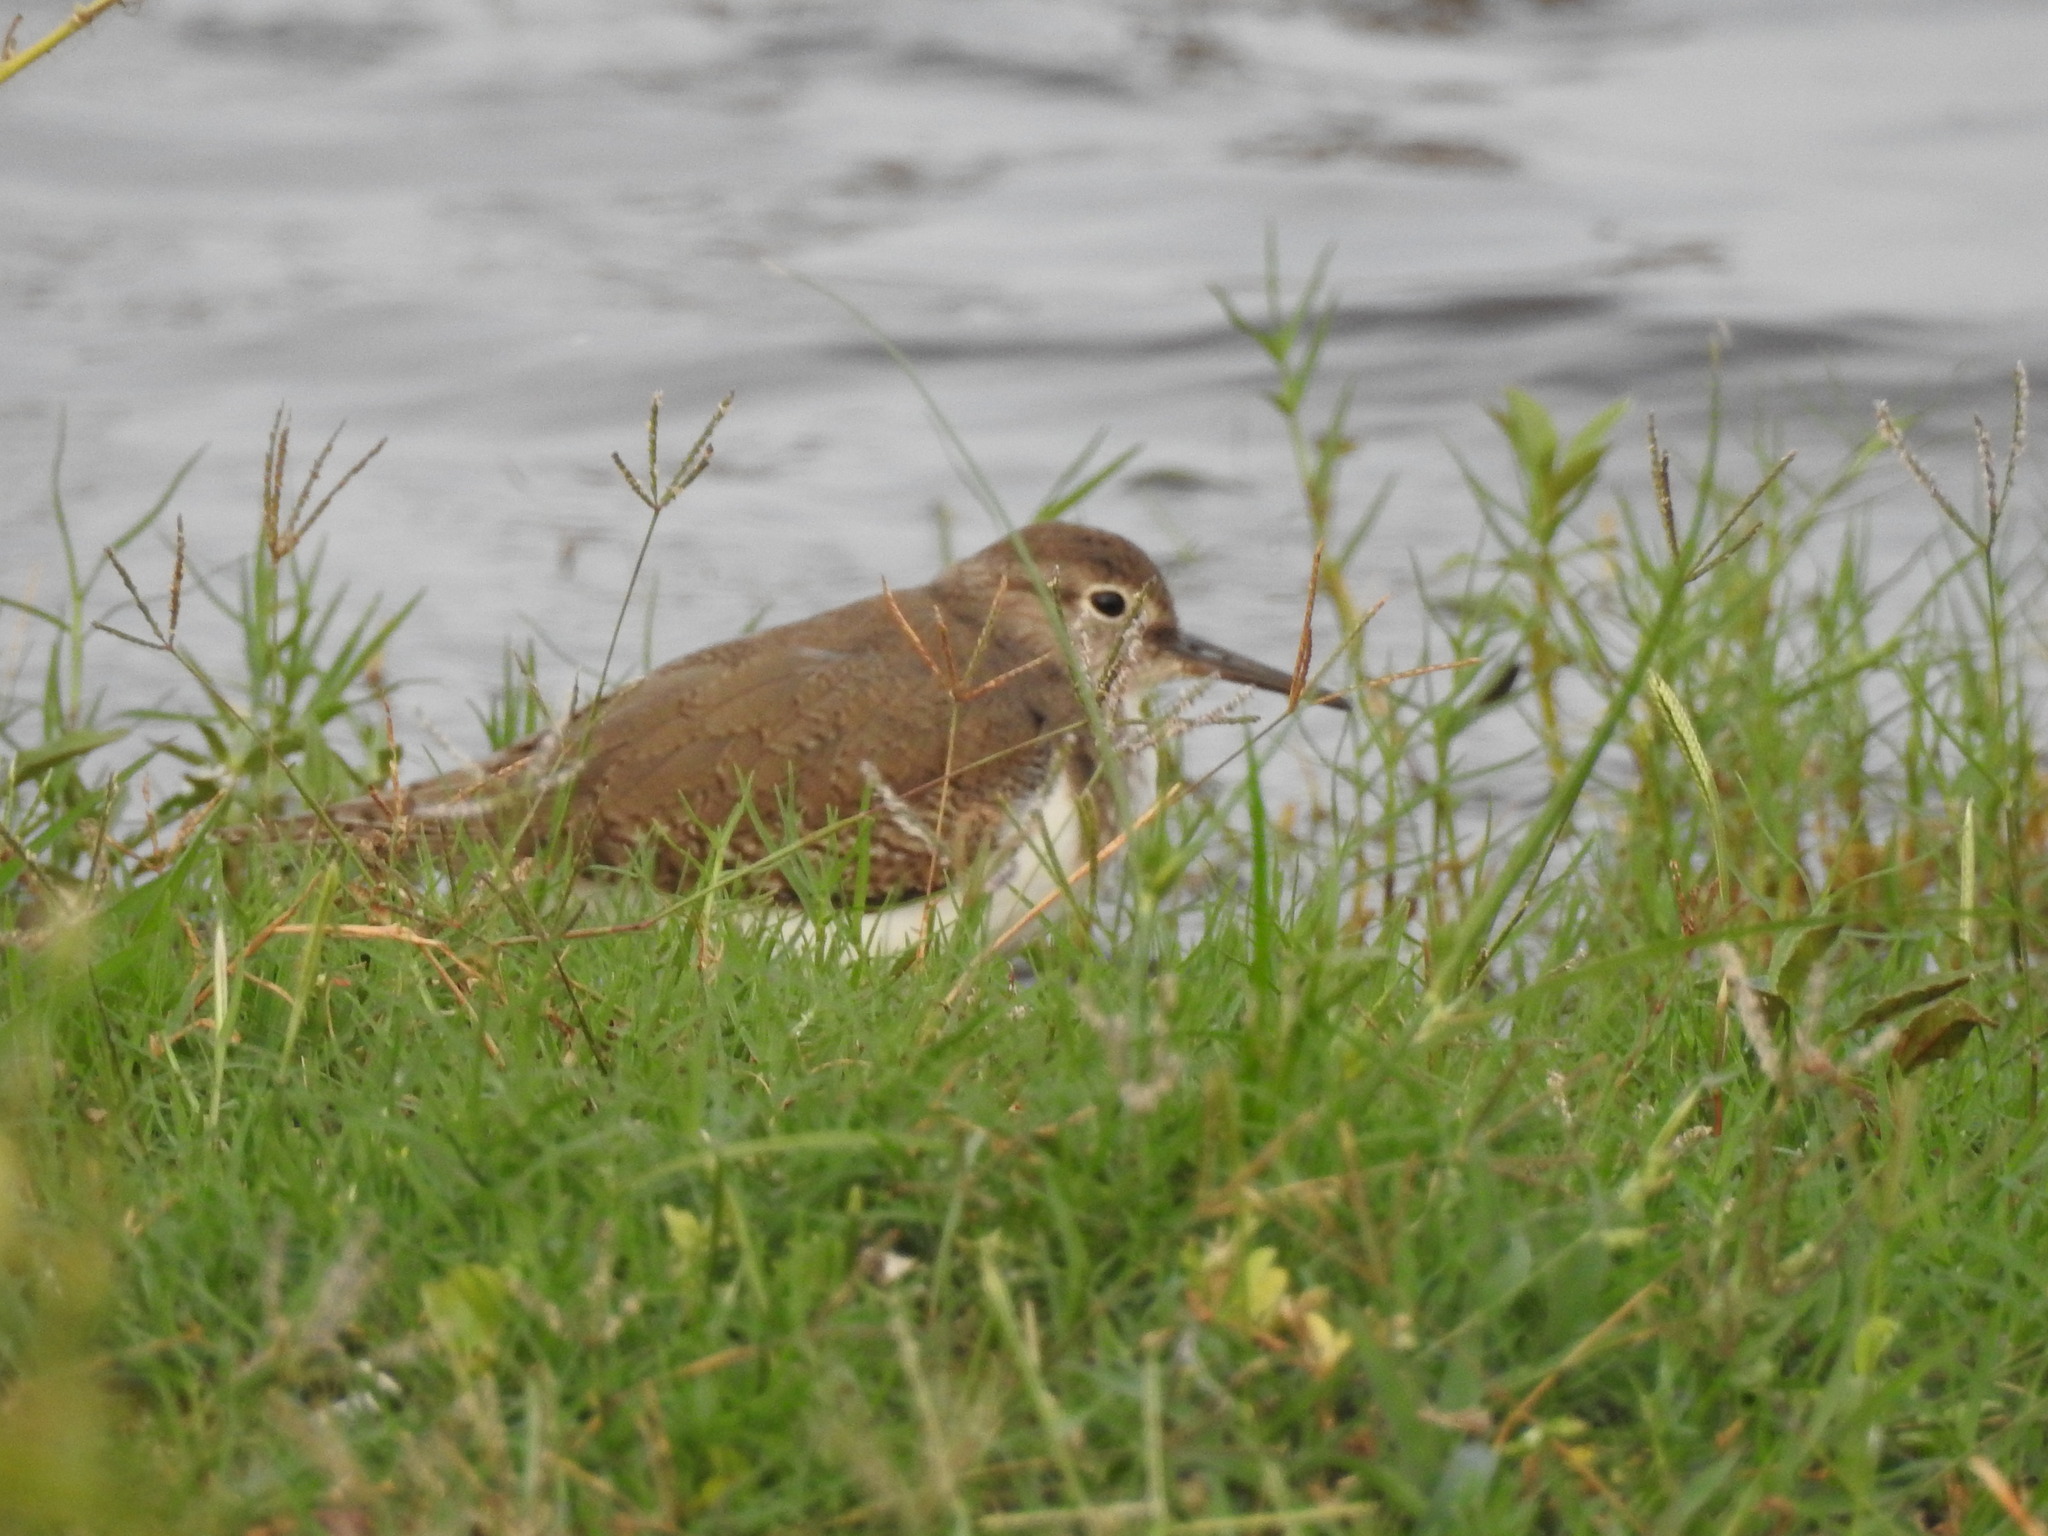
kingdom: Animalia
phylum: Chordata
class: Aves
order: Charadriiformes
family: Scolopacidae
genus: Actitis
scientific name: Actitis hypoleucos
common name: Common sandpiper
